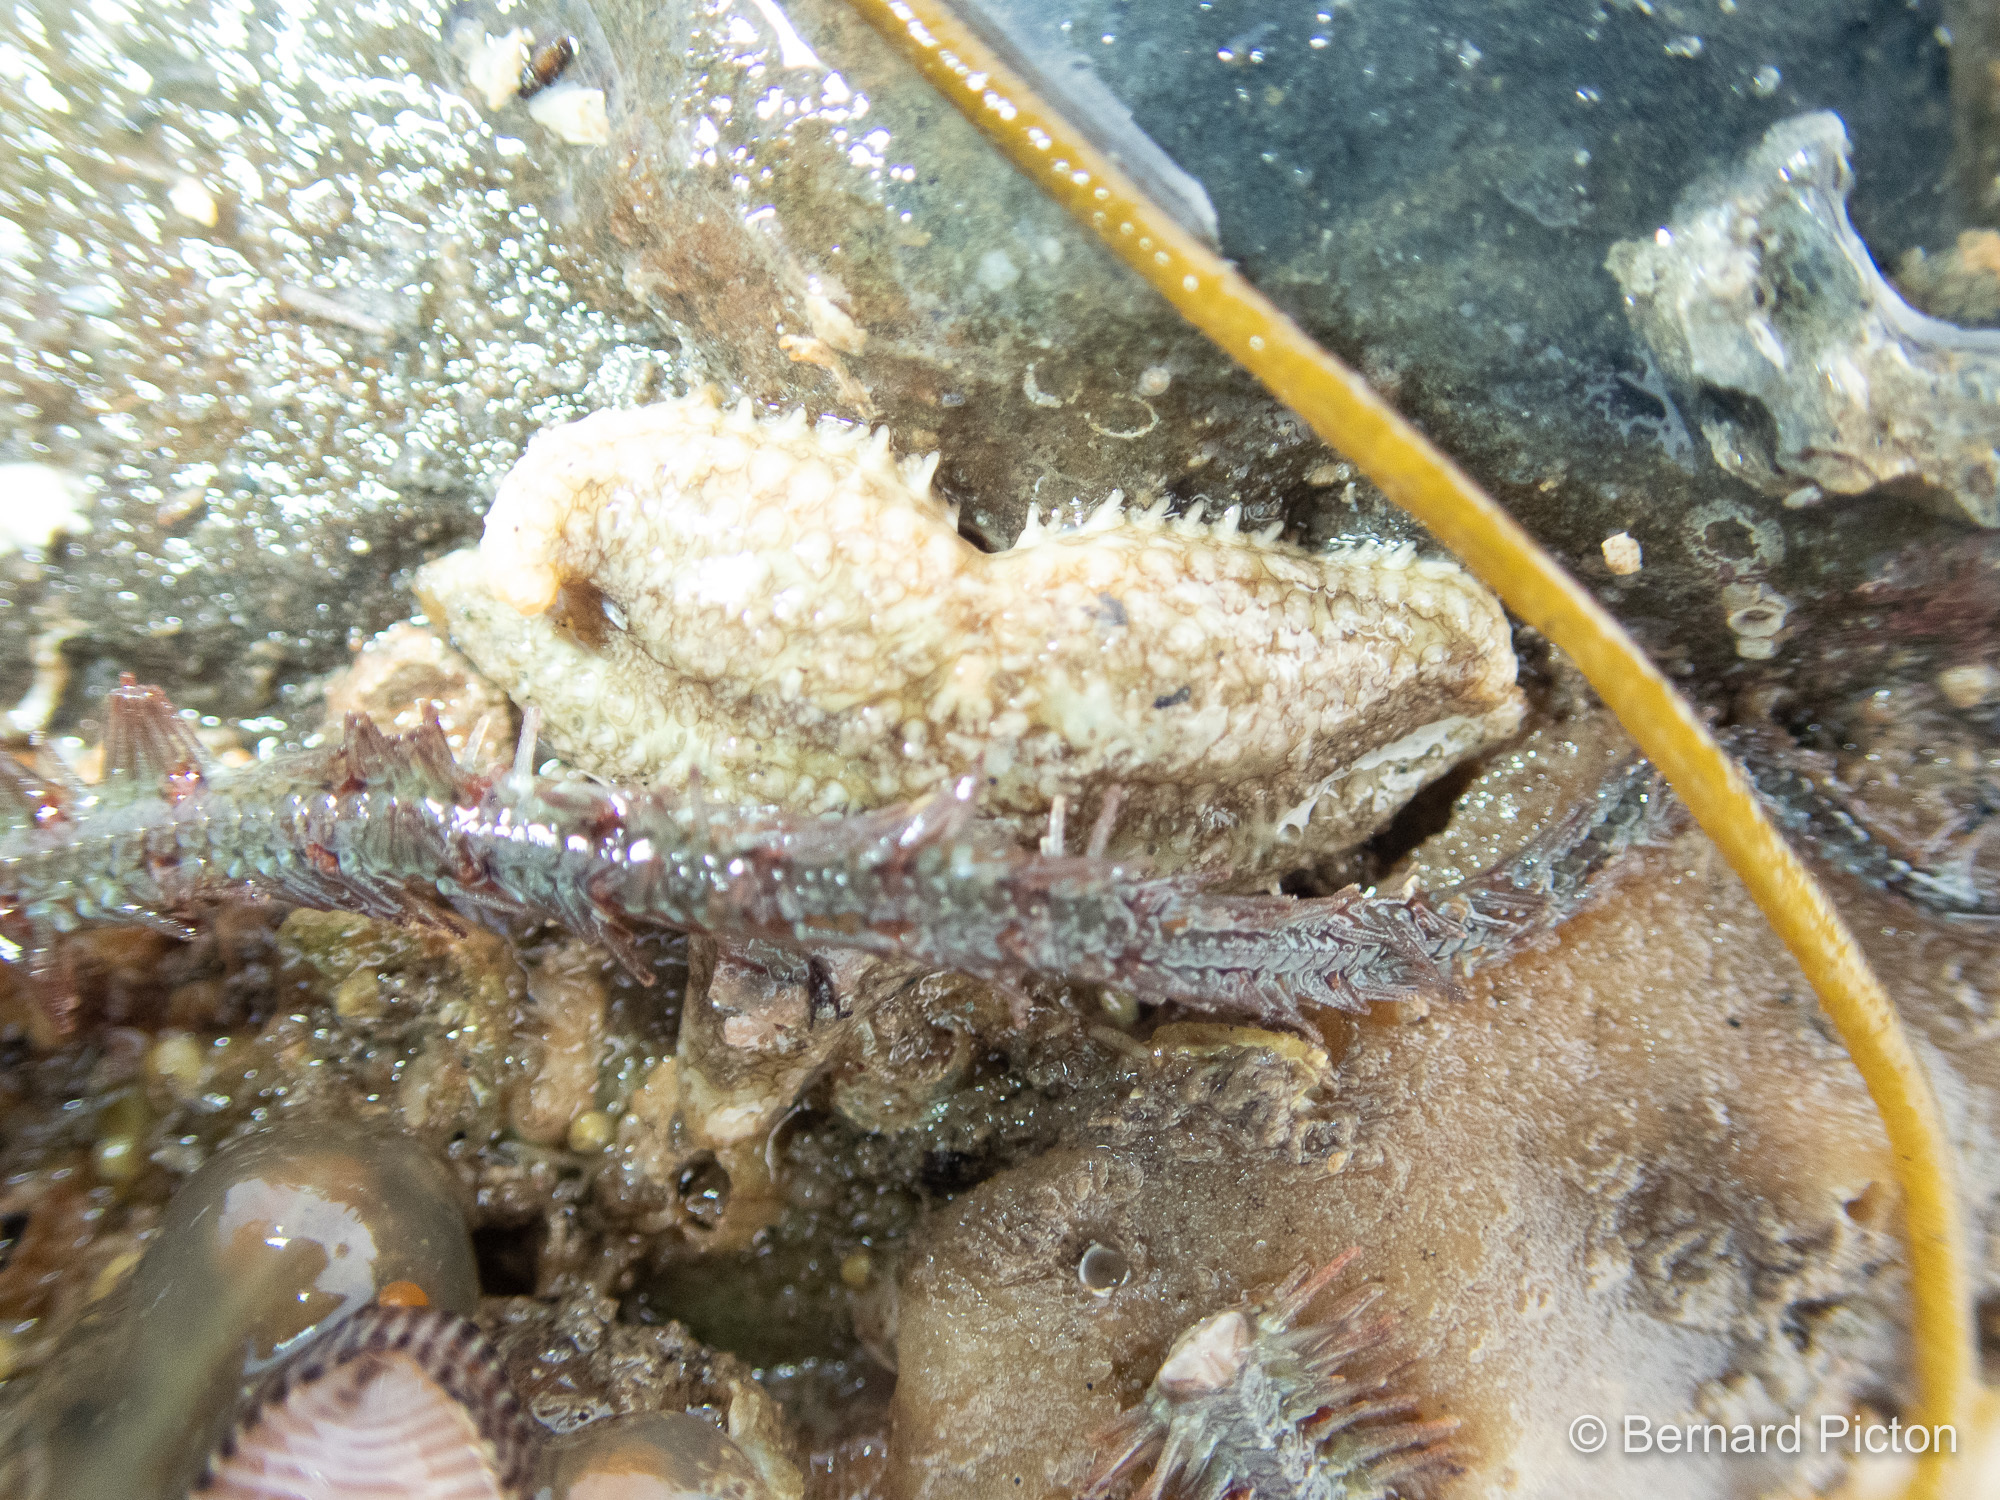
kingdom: Animalia
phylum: Echinodermata
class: Asteroidea
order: Forcipulatida
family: Asteriidae
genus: Leptasterias
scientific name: Leptasterias muelleri
